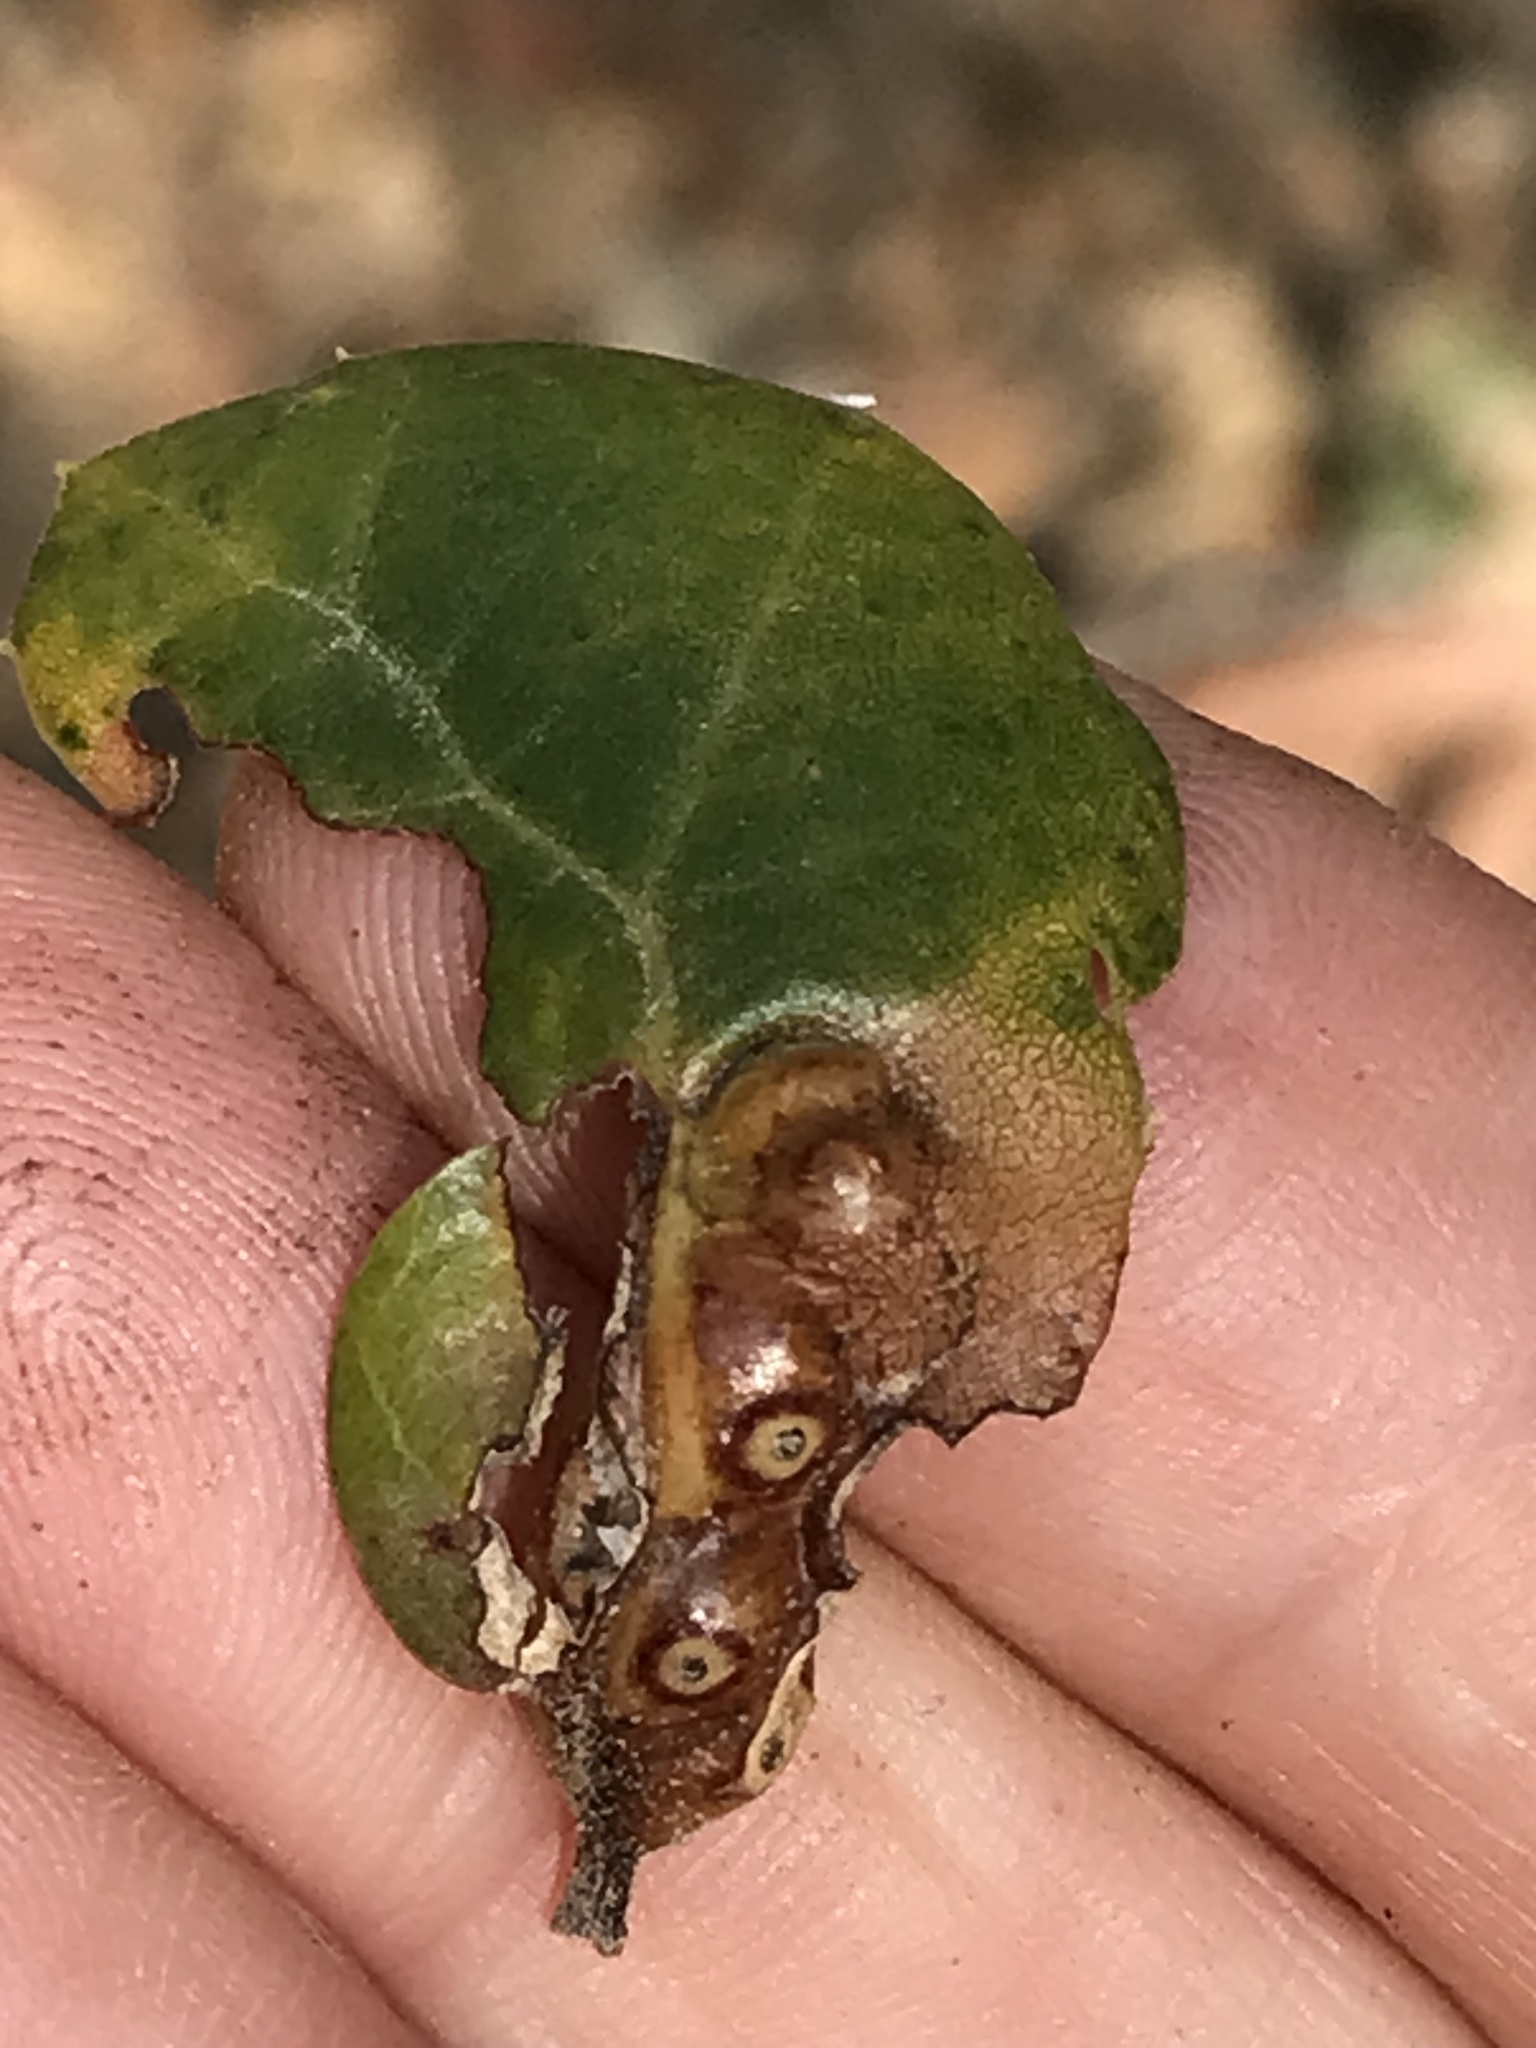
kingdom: Animalia
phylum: Arthropoda
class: Insecta
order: Hymenoptera
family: Cynipidae
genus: Melikaiella
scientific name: Melikaiella
